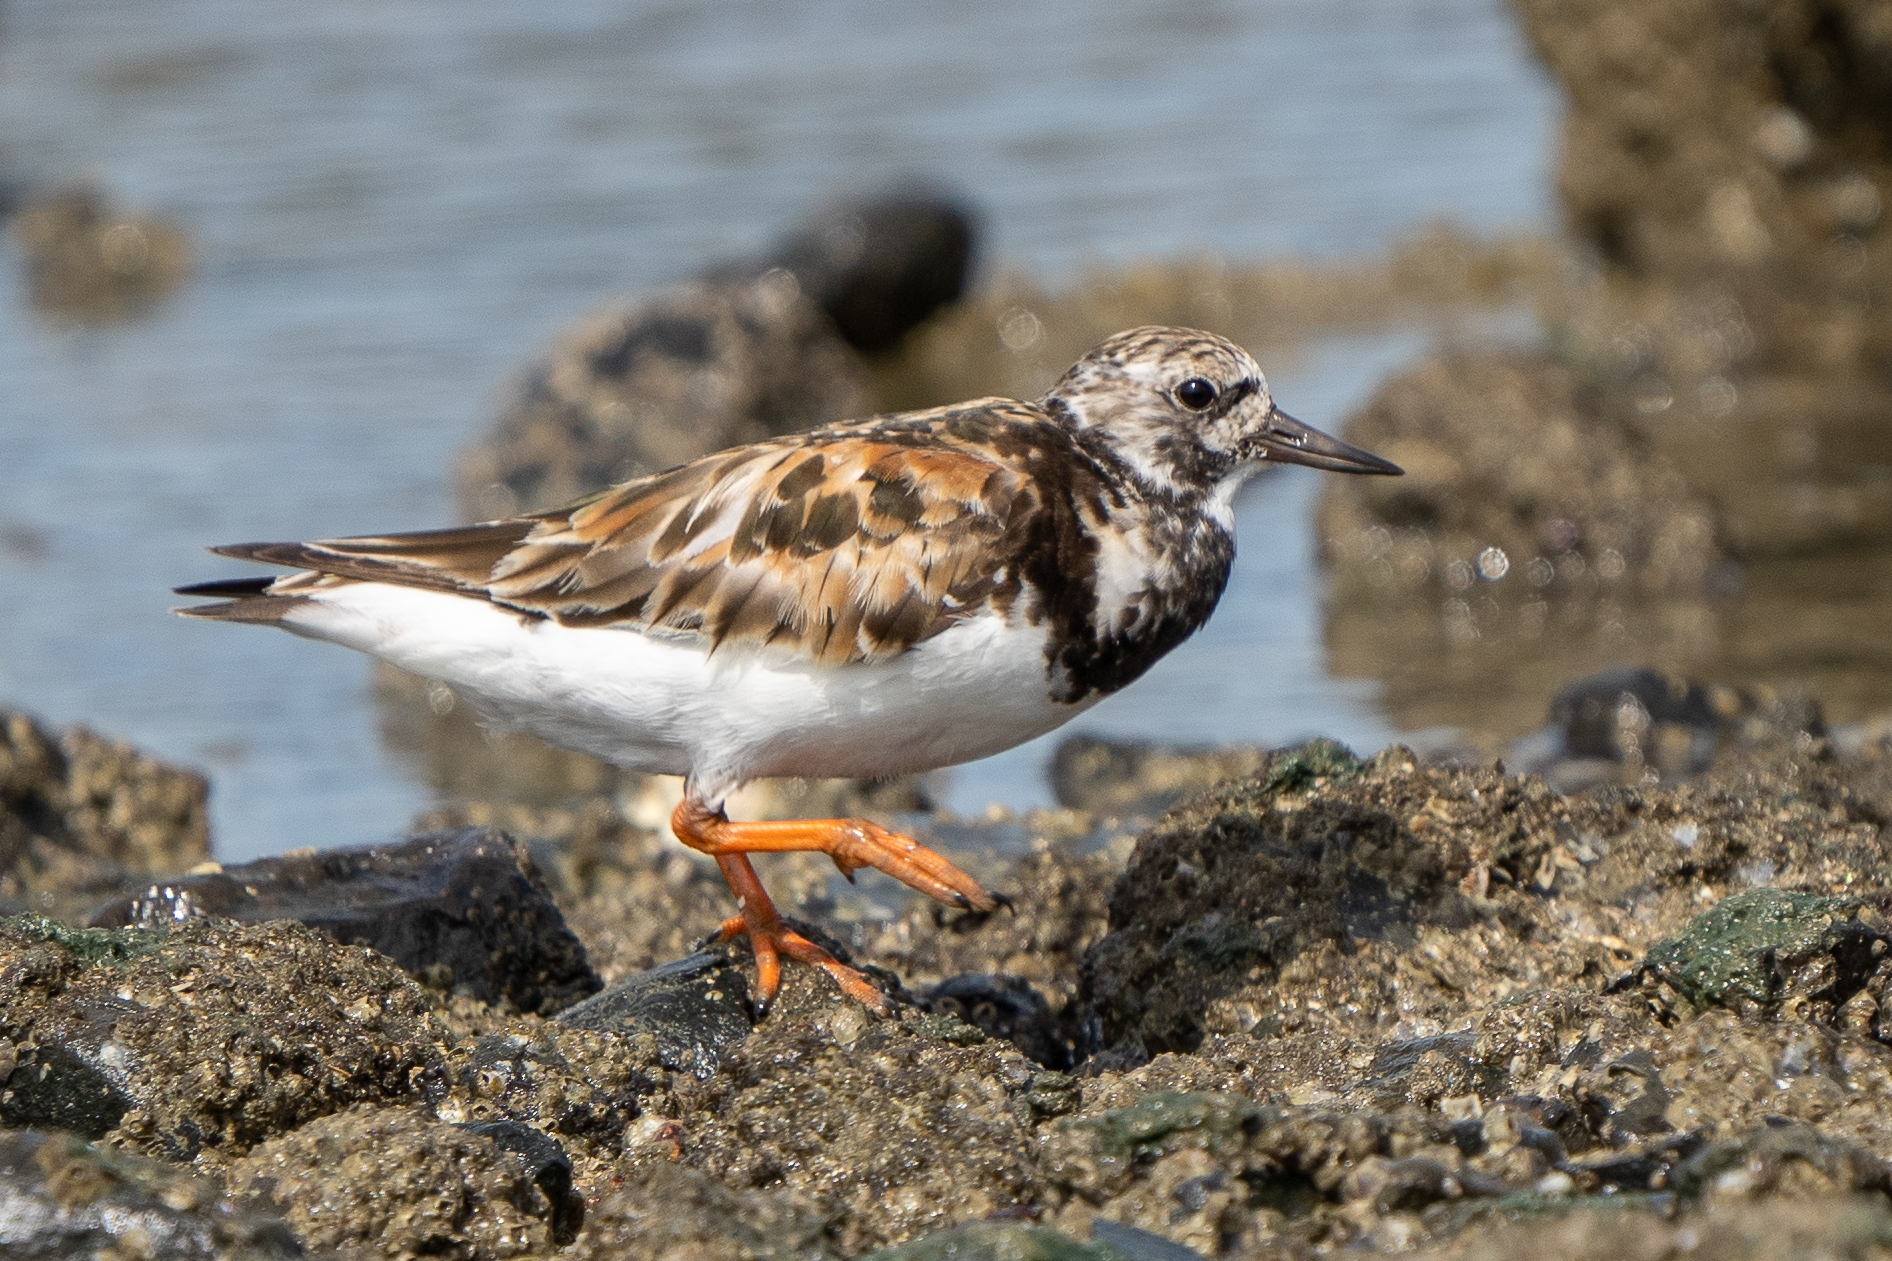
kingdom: Animalia
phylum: Chordata
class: Aves
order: Charadriiformes
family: Scolopacidae
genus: Arenaria
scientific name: Arenaria interpres
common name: Ruddy turnstone
